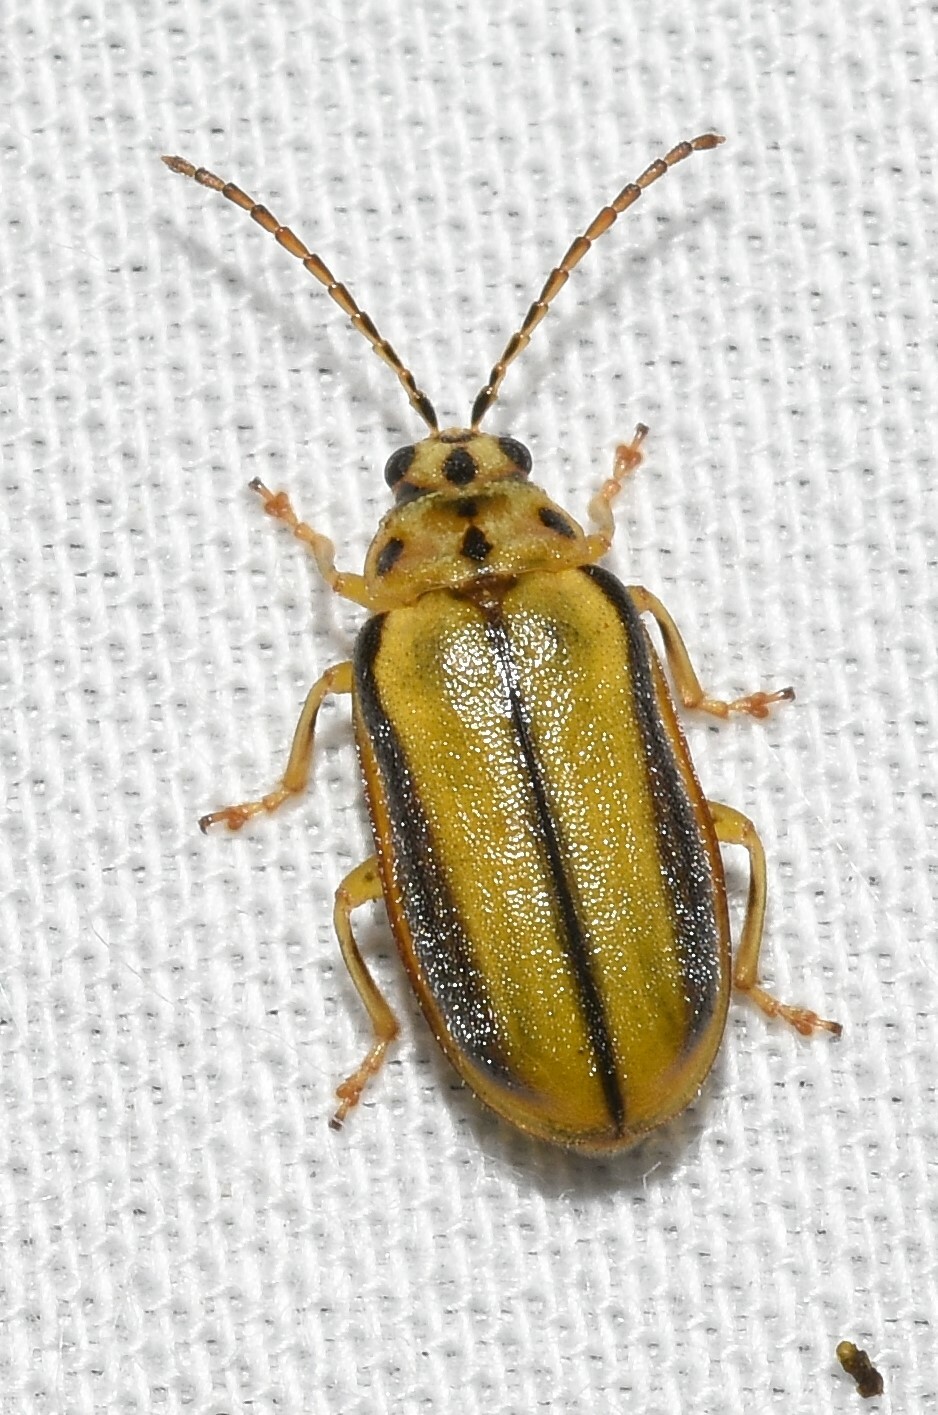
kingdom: Animalia
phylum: Arthropoda
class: Insecta
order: Coleoptera
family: Chrysomelidae
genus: Xanthogaleruca
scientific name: Xanthogaleruca luteola
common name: Elm leaf beetle
